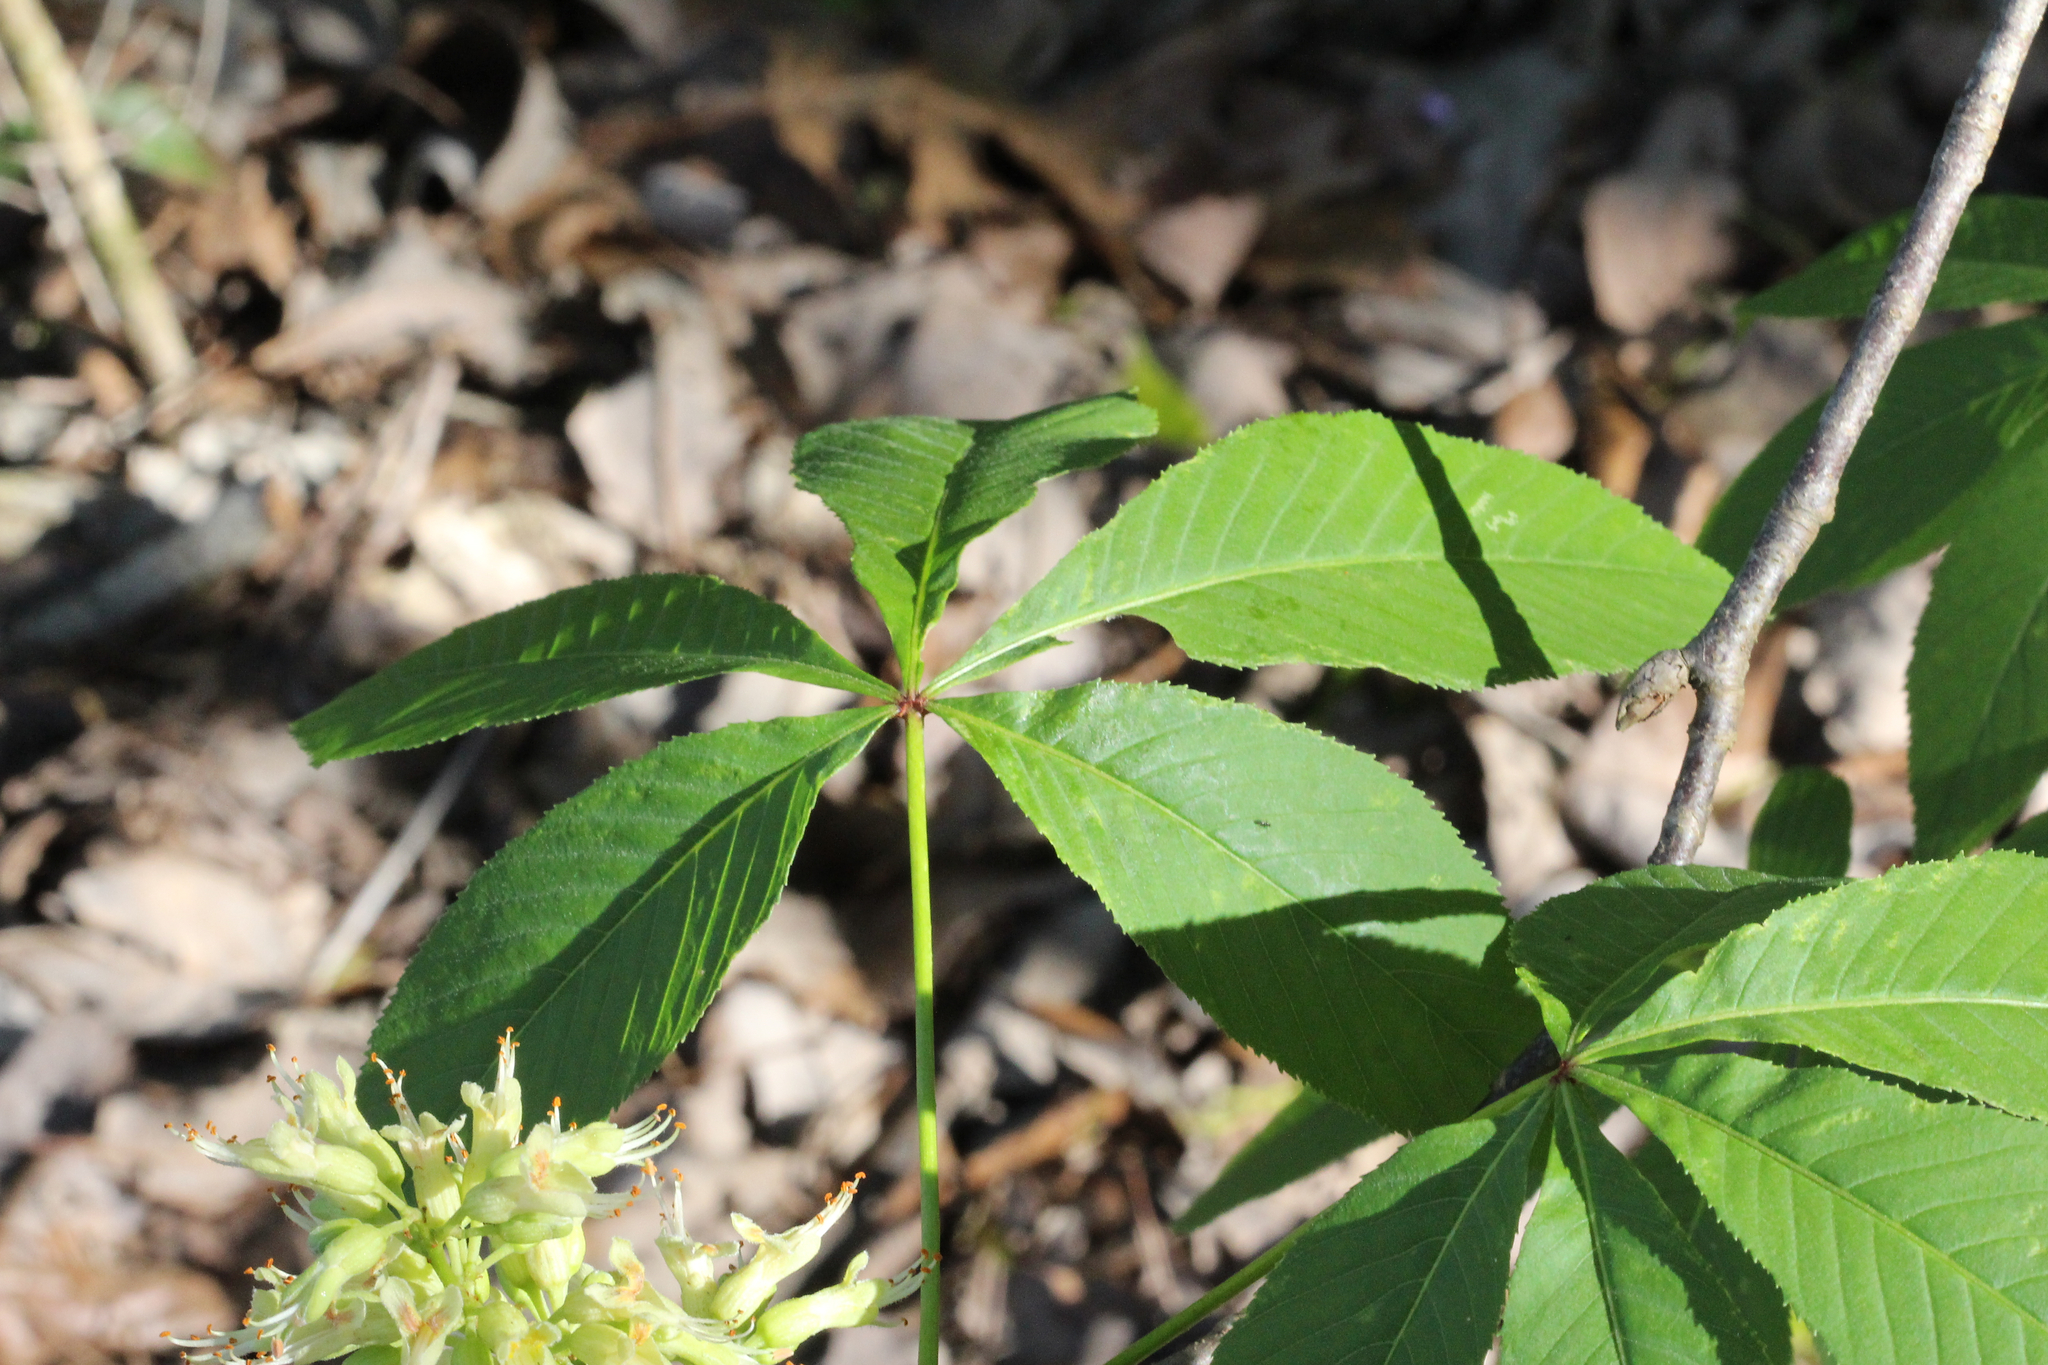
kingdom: Plantae
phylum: Tracheophyta
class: Magnoliopsida
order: Sapindales
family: Sapindaceae
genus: Aesculus
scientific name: Aesculus glabra
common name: Ohio buckeye
